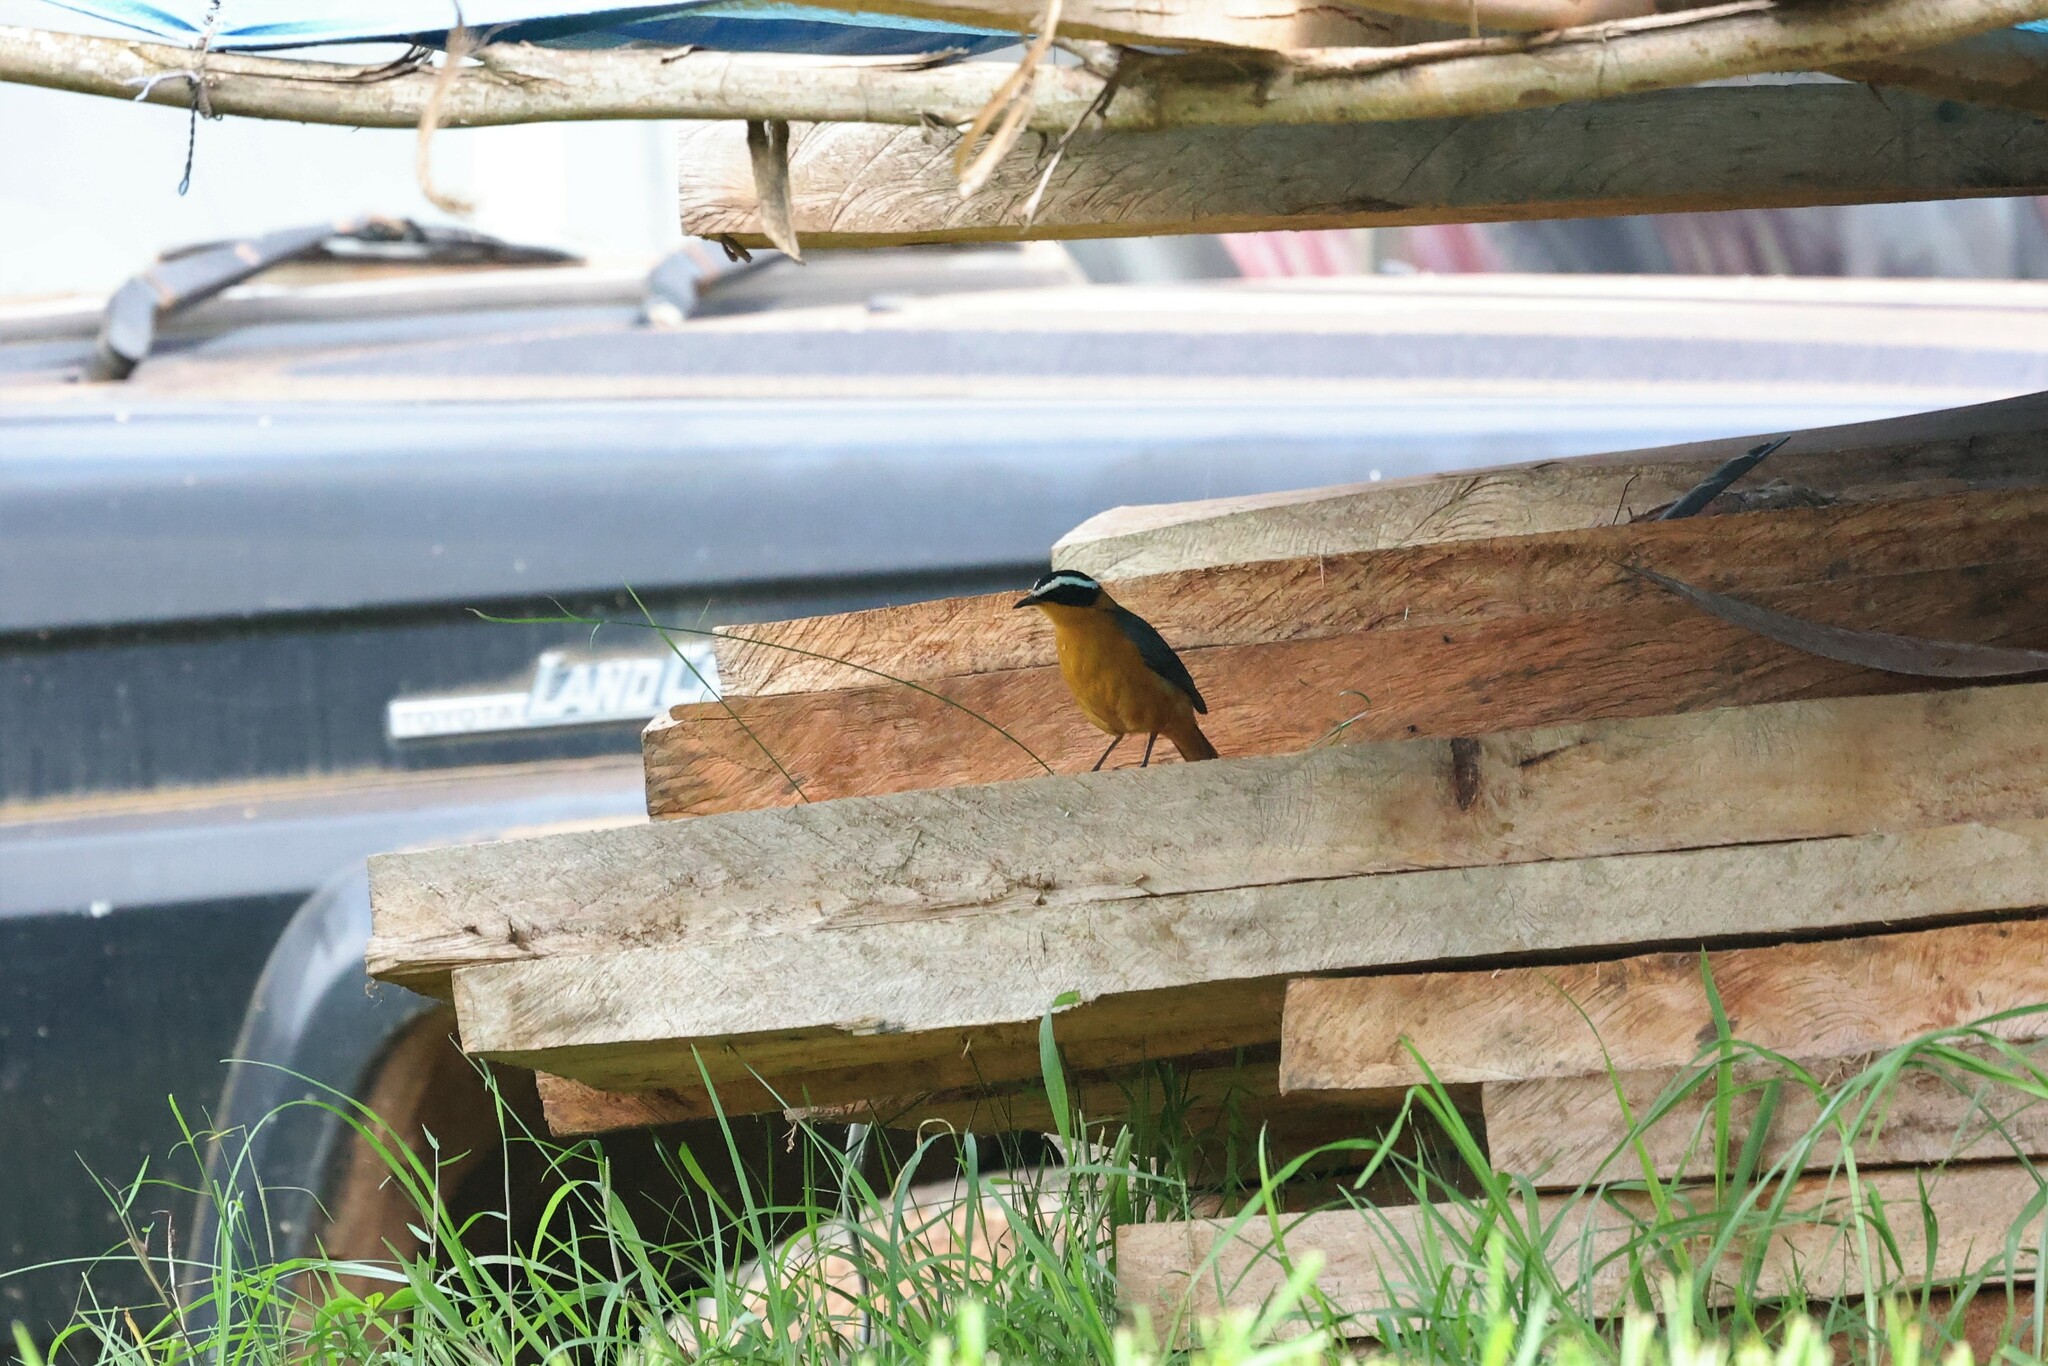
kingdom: Animalia
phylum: Chordata
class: Aves
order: Passeriformes
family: Muscicapidae
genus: Cossypha
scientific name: Cossypha heuglini
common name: White-browed robin-chat
